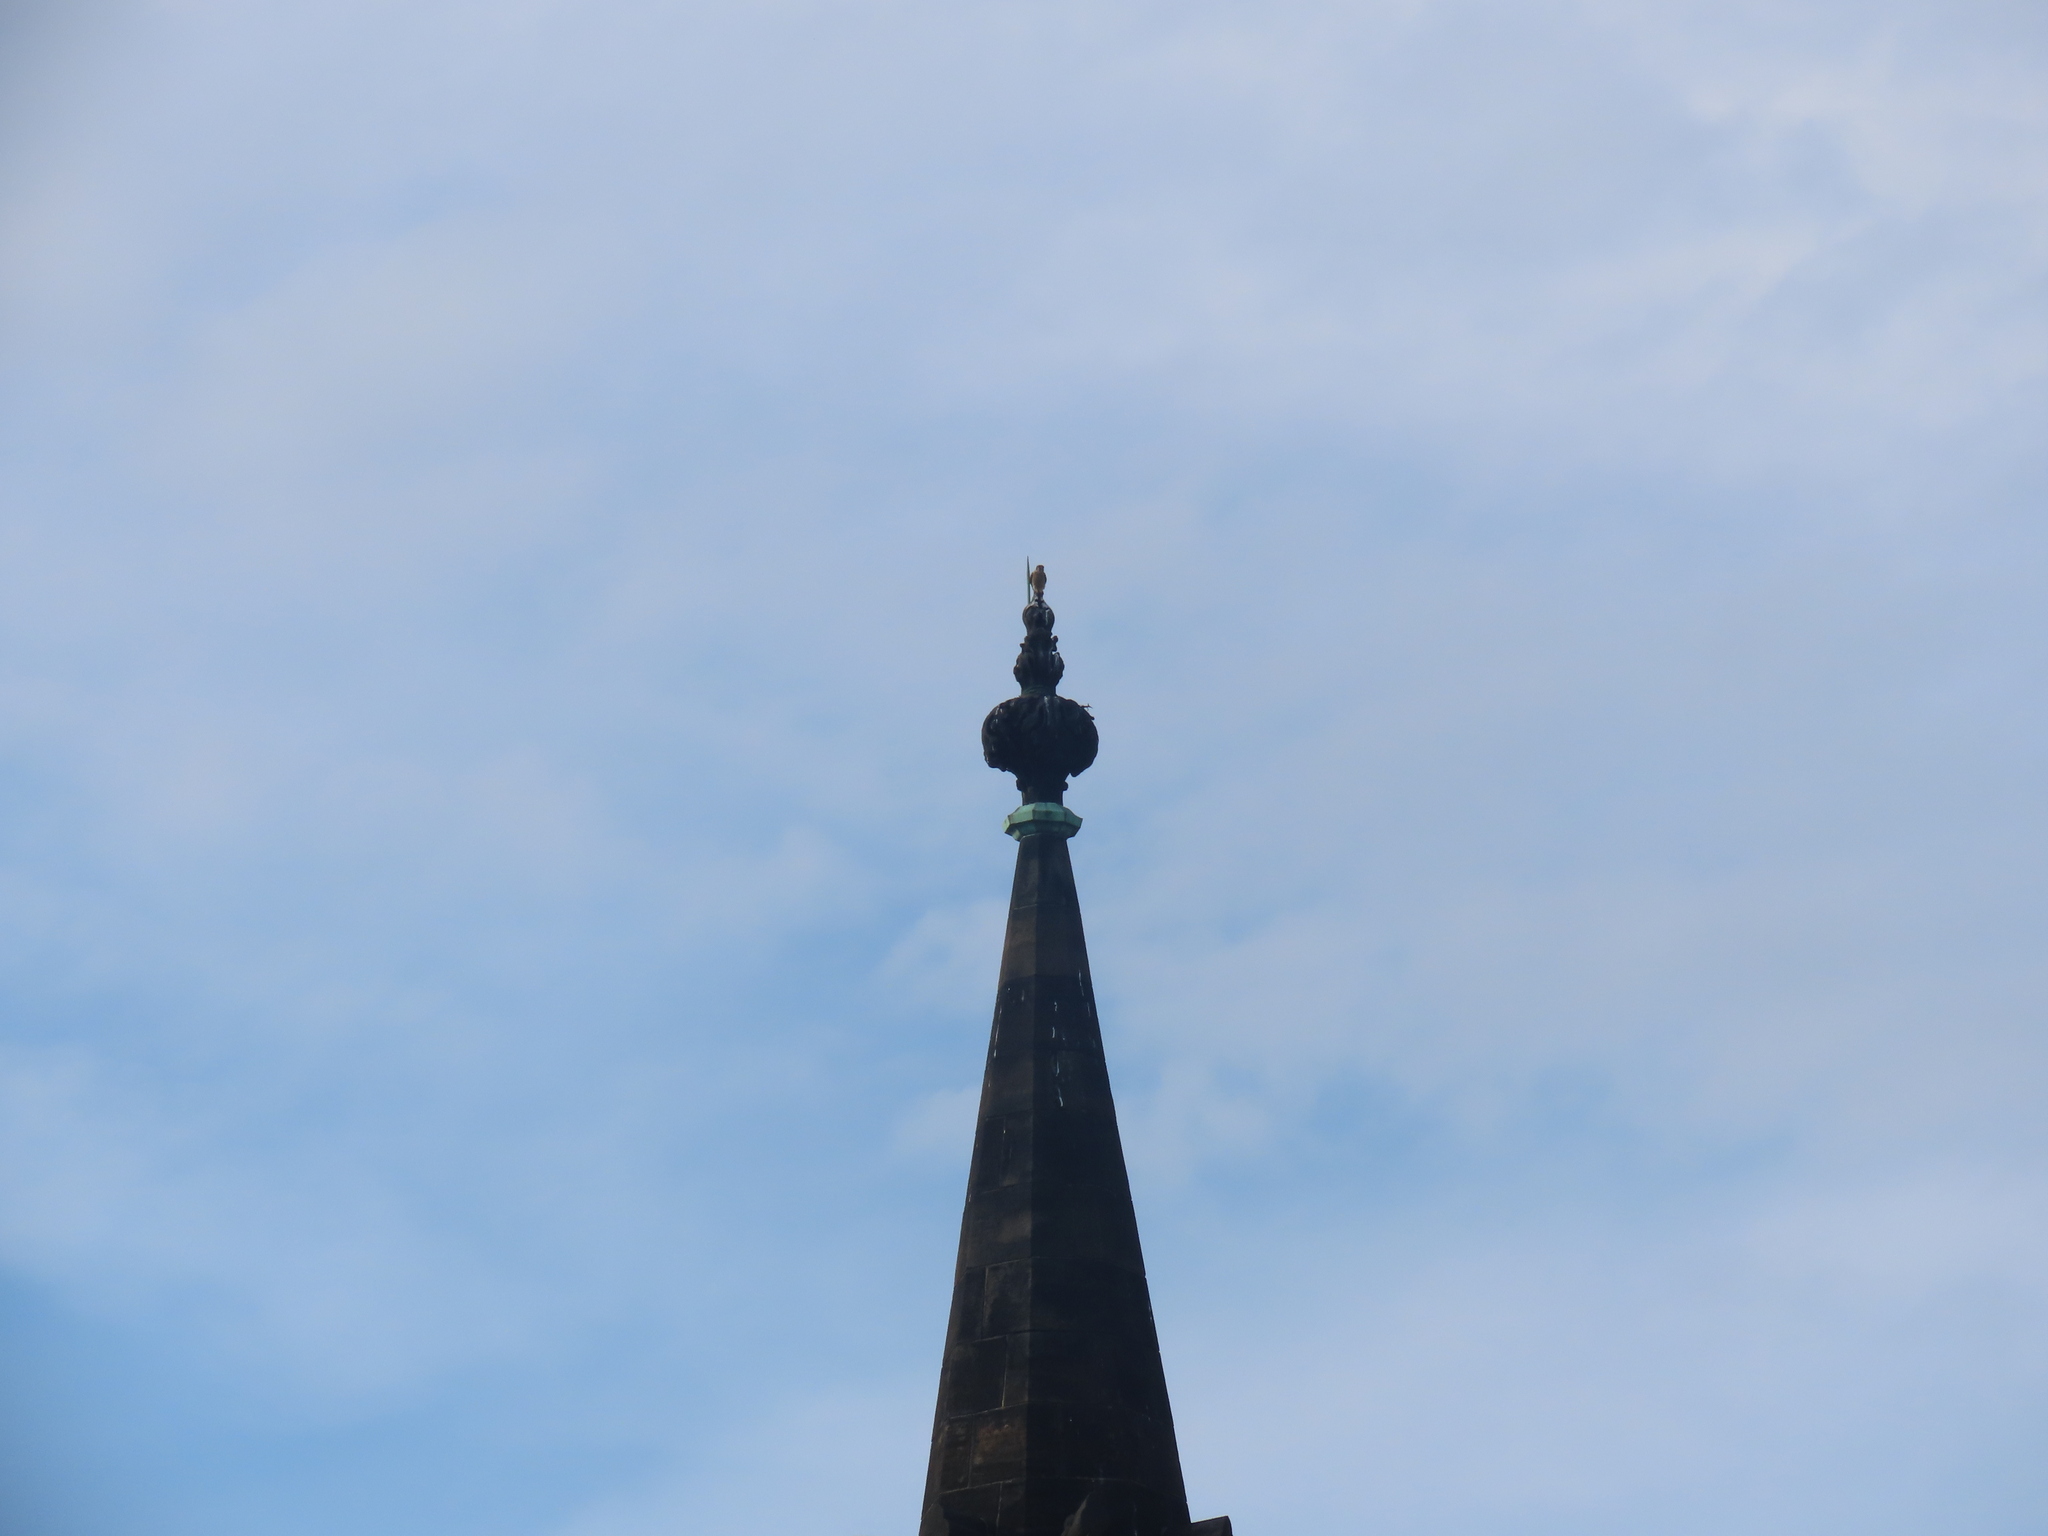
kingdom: Animalia
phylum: Chordata
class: Aves
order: Falconiformes
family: Falconidae
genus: Falco
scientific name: Falco sparverius
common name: American kestrel
